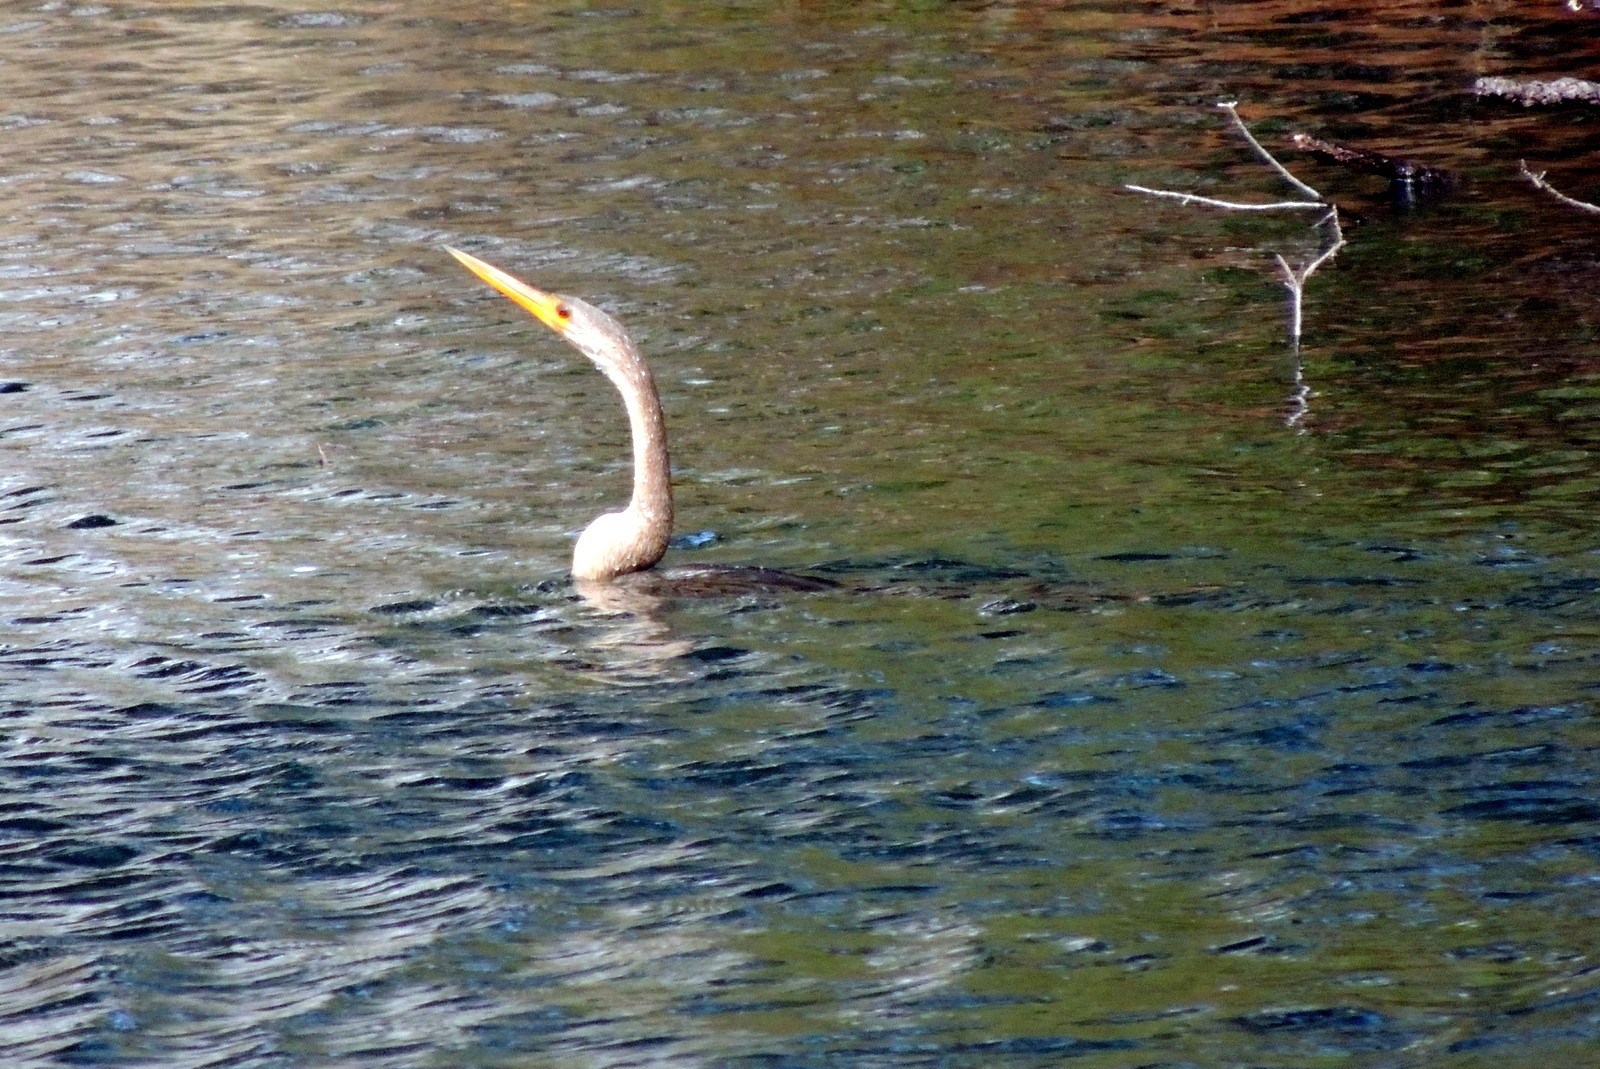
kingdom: Animalia
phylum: Chordata
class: Aves
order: Suliformes
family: Anhingidae
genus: Anhinga
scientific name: Anhinga anhinga
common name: Anhinga
